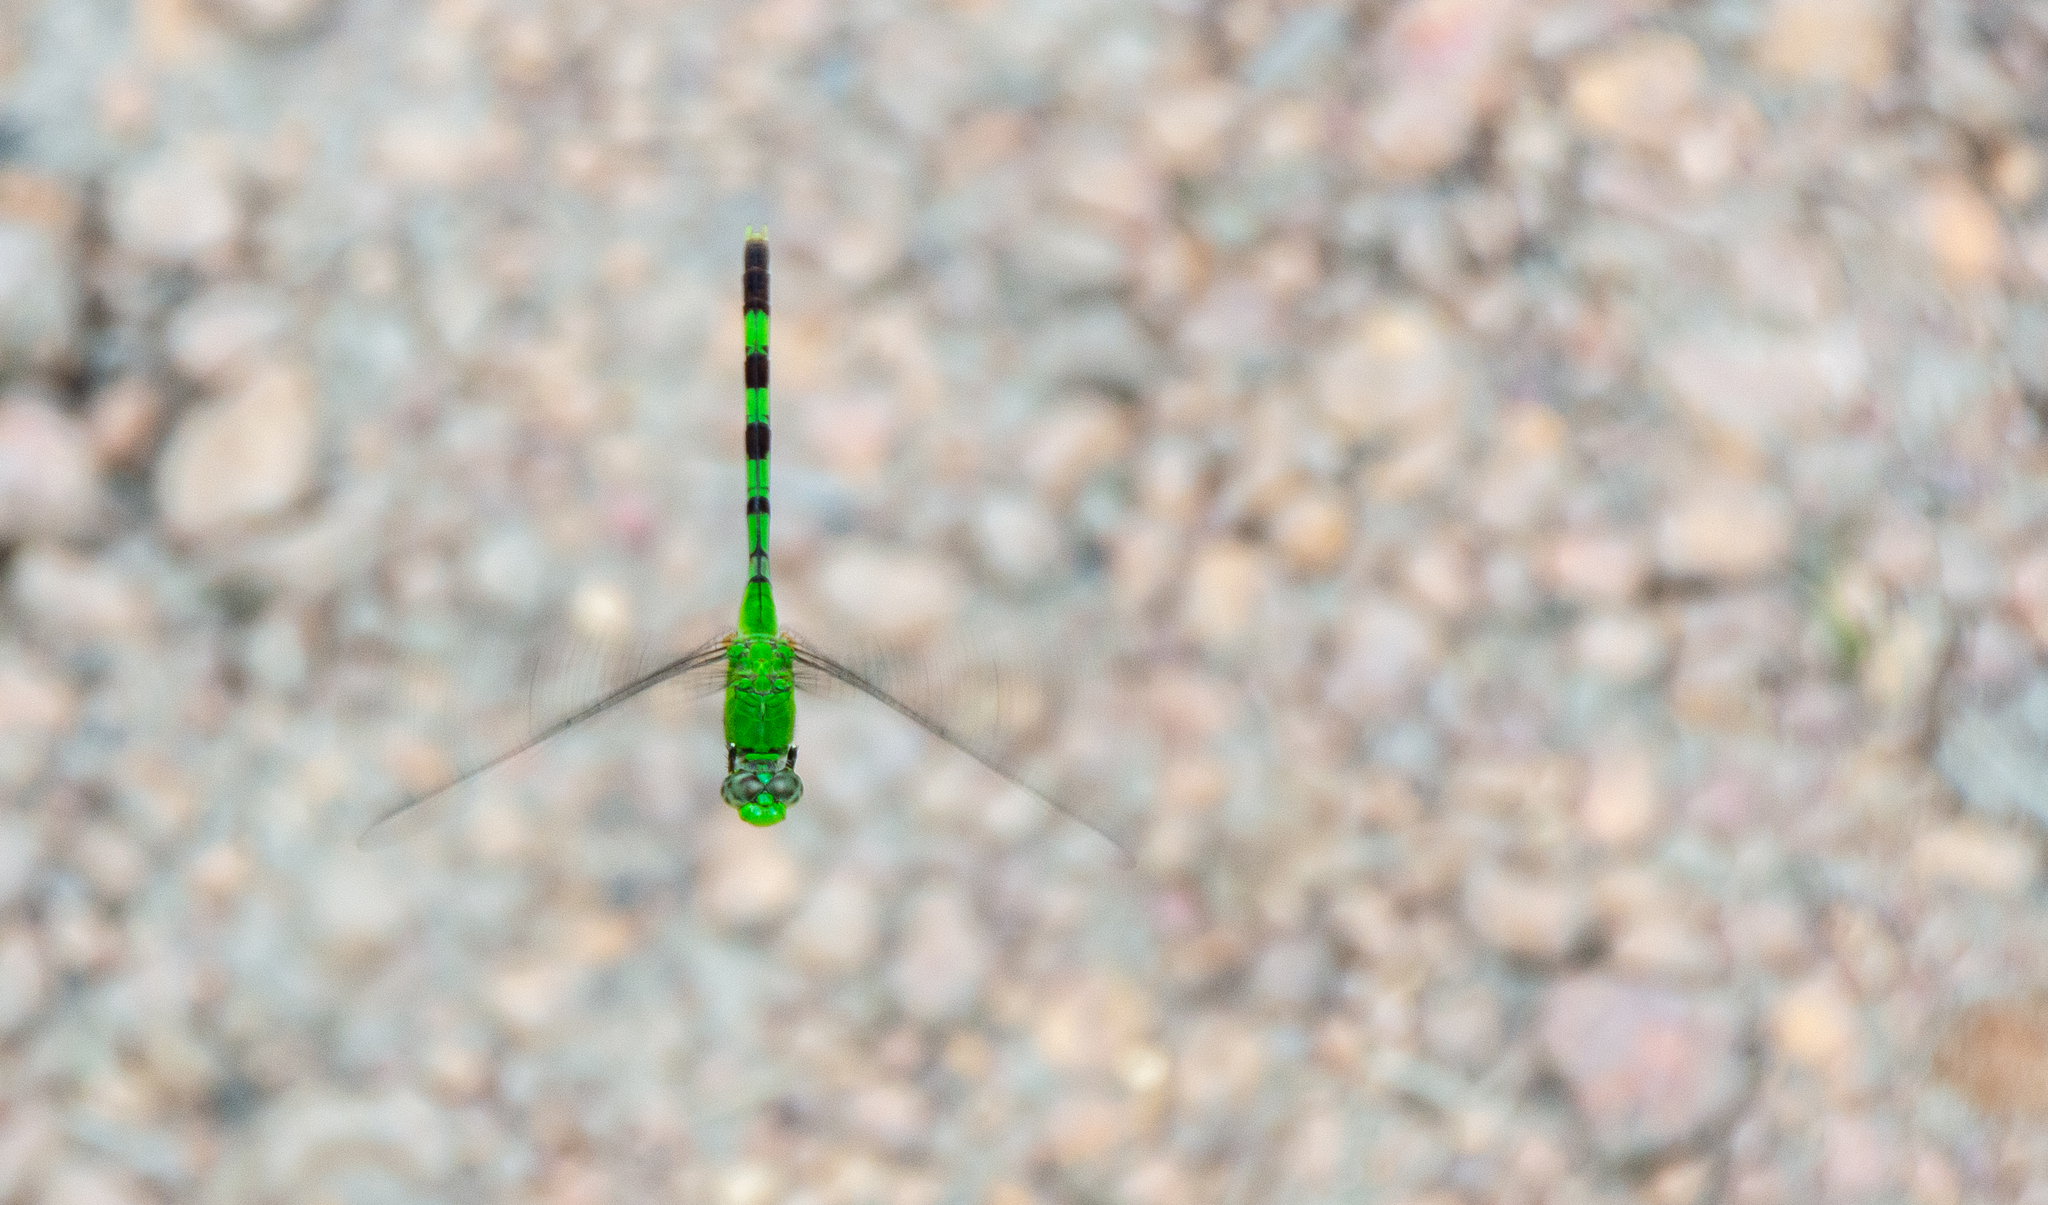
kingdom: Animalia
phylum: Arthropoda
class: Insecta
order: Odonata
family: Libellulidae
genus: Erythemis
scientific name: Erythemis vesiculosa
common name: Great pondhawk
